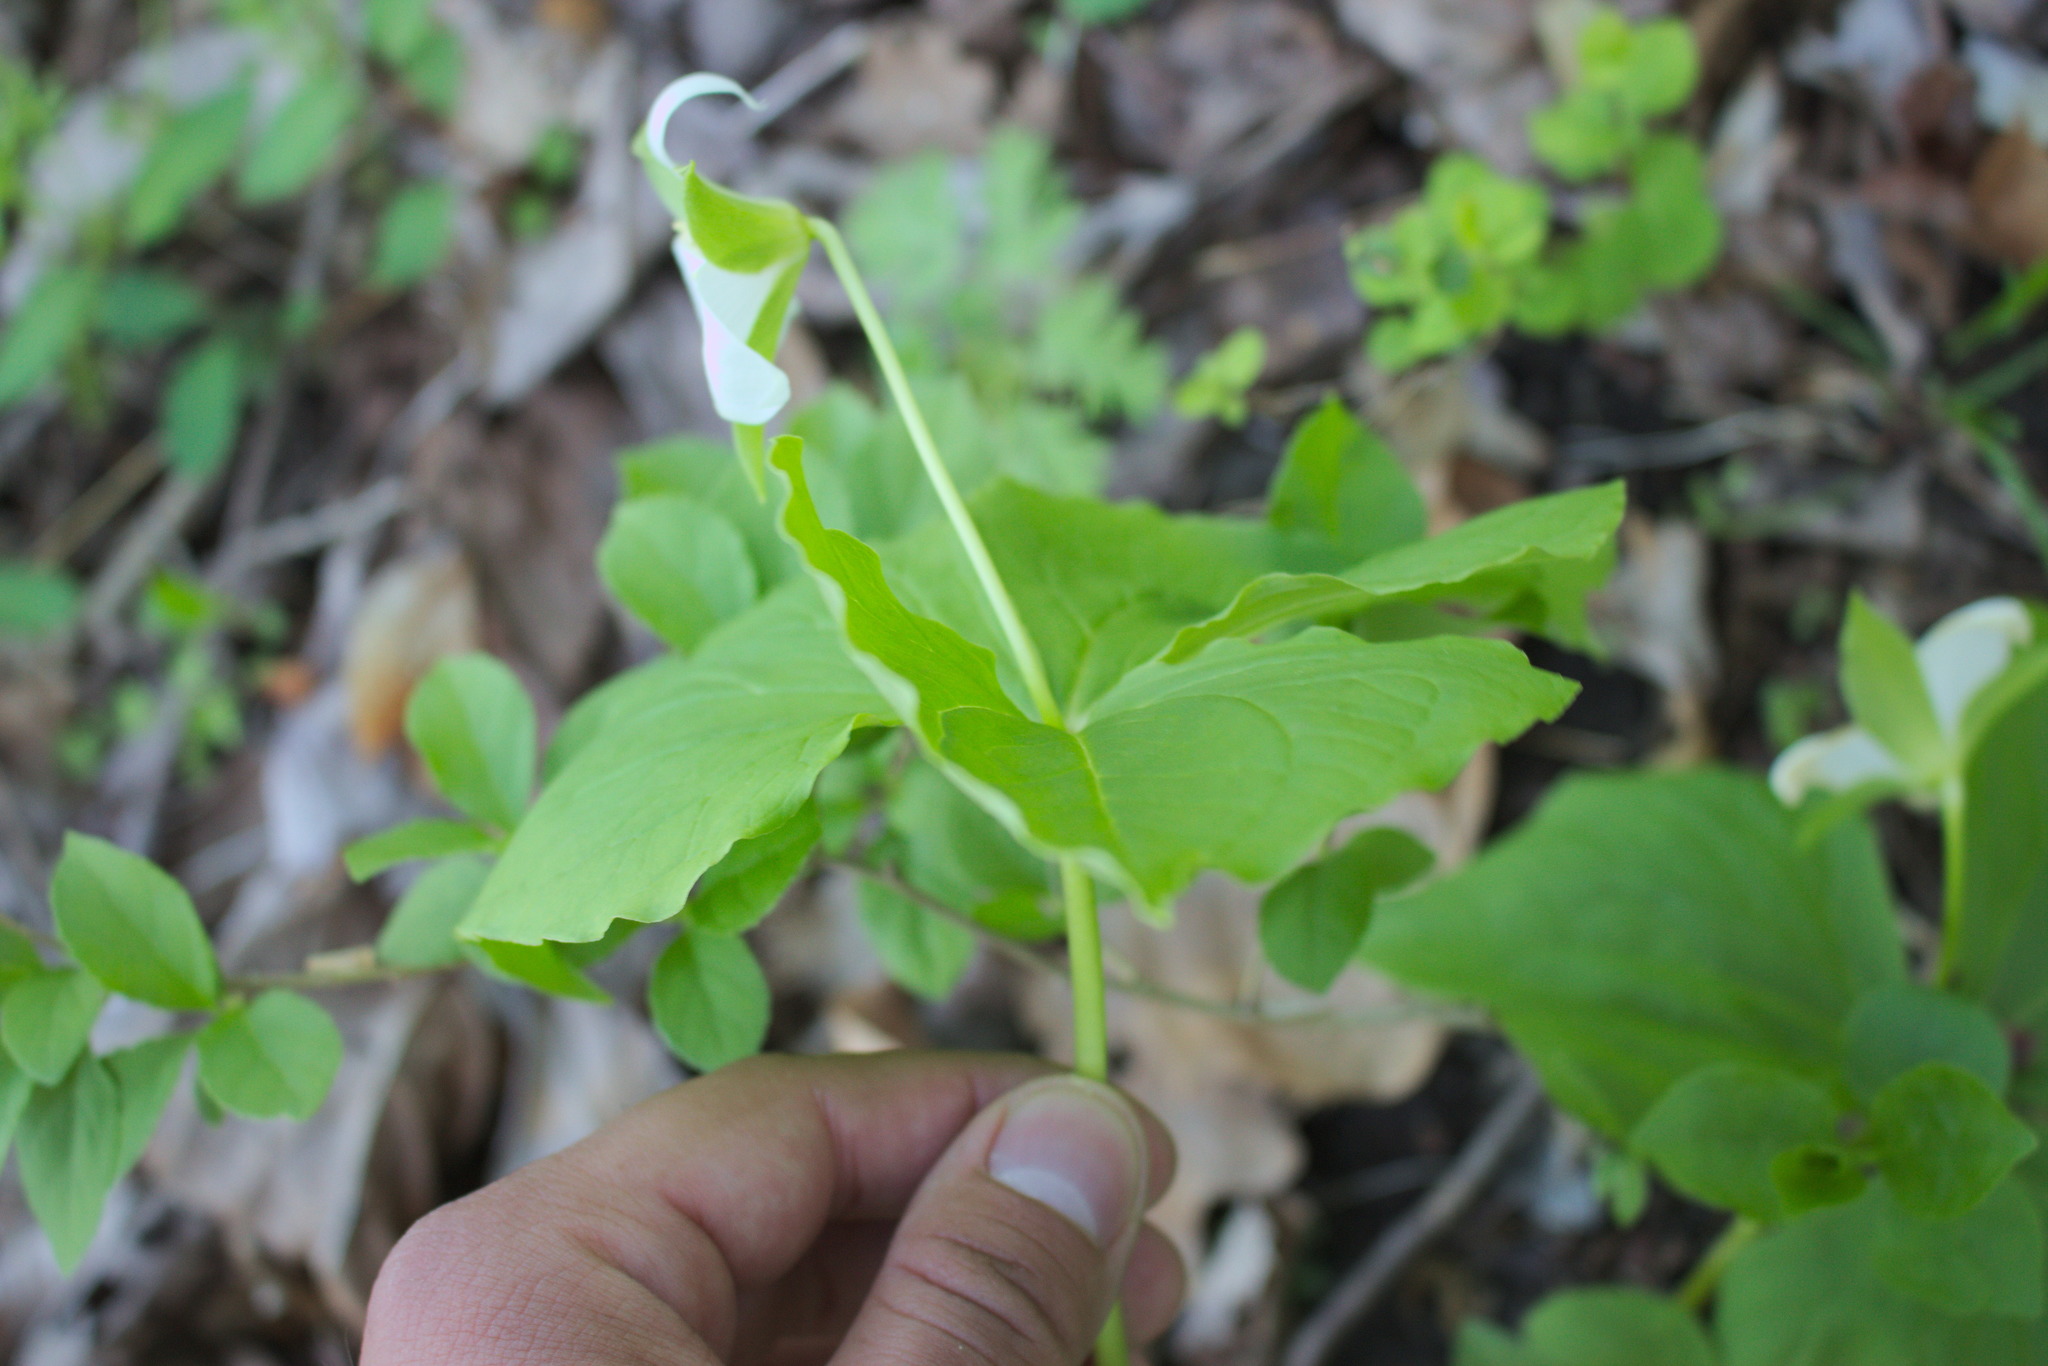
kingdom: Plantae
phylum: Tracheophyta
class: Liliopsida
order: Liliales
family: Melanthiaceae
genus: Trillium
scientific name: Trillium flexipes
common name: Drooping trillium
